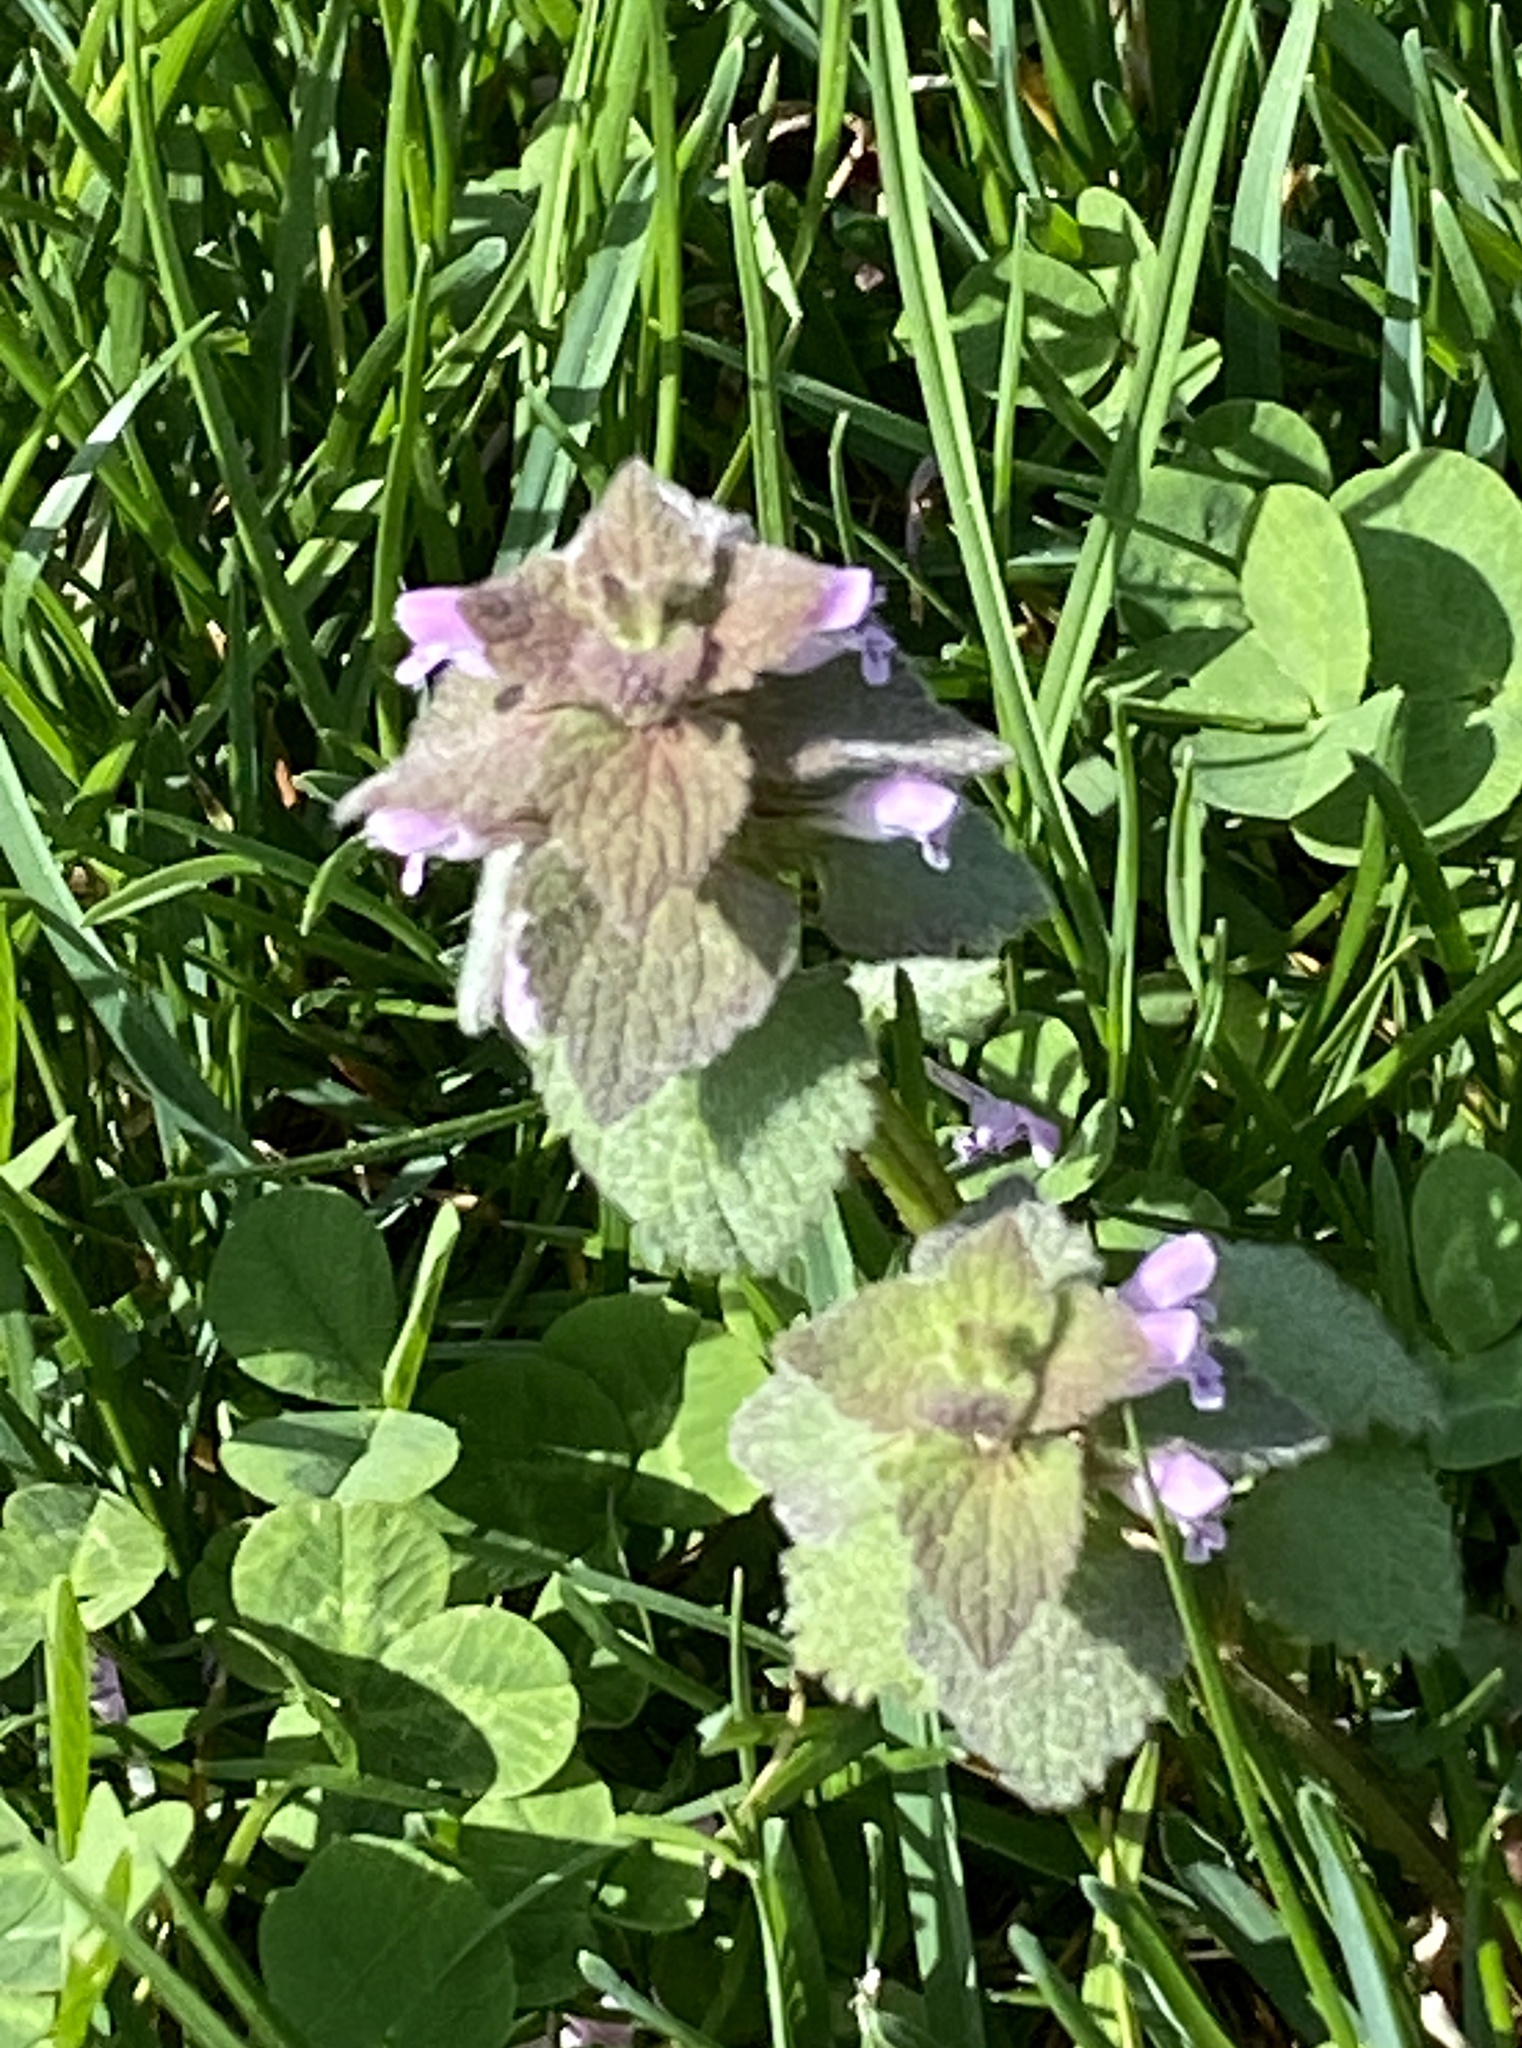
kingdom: Plantae
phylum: Tracheophyta
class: Magnoliopsida
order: Lamiales
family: Lamiaceae
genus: Lamium
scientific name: Lamium purpureum
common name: Red dead-nettle
